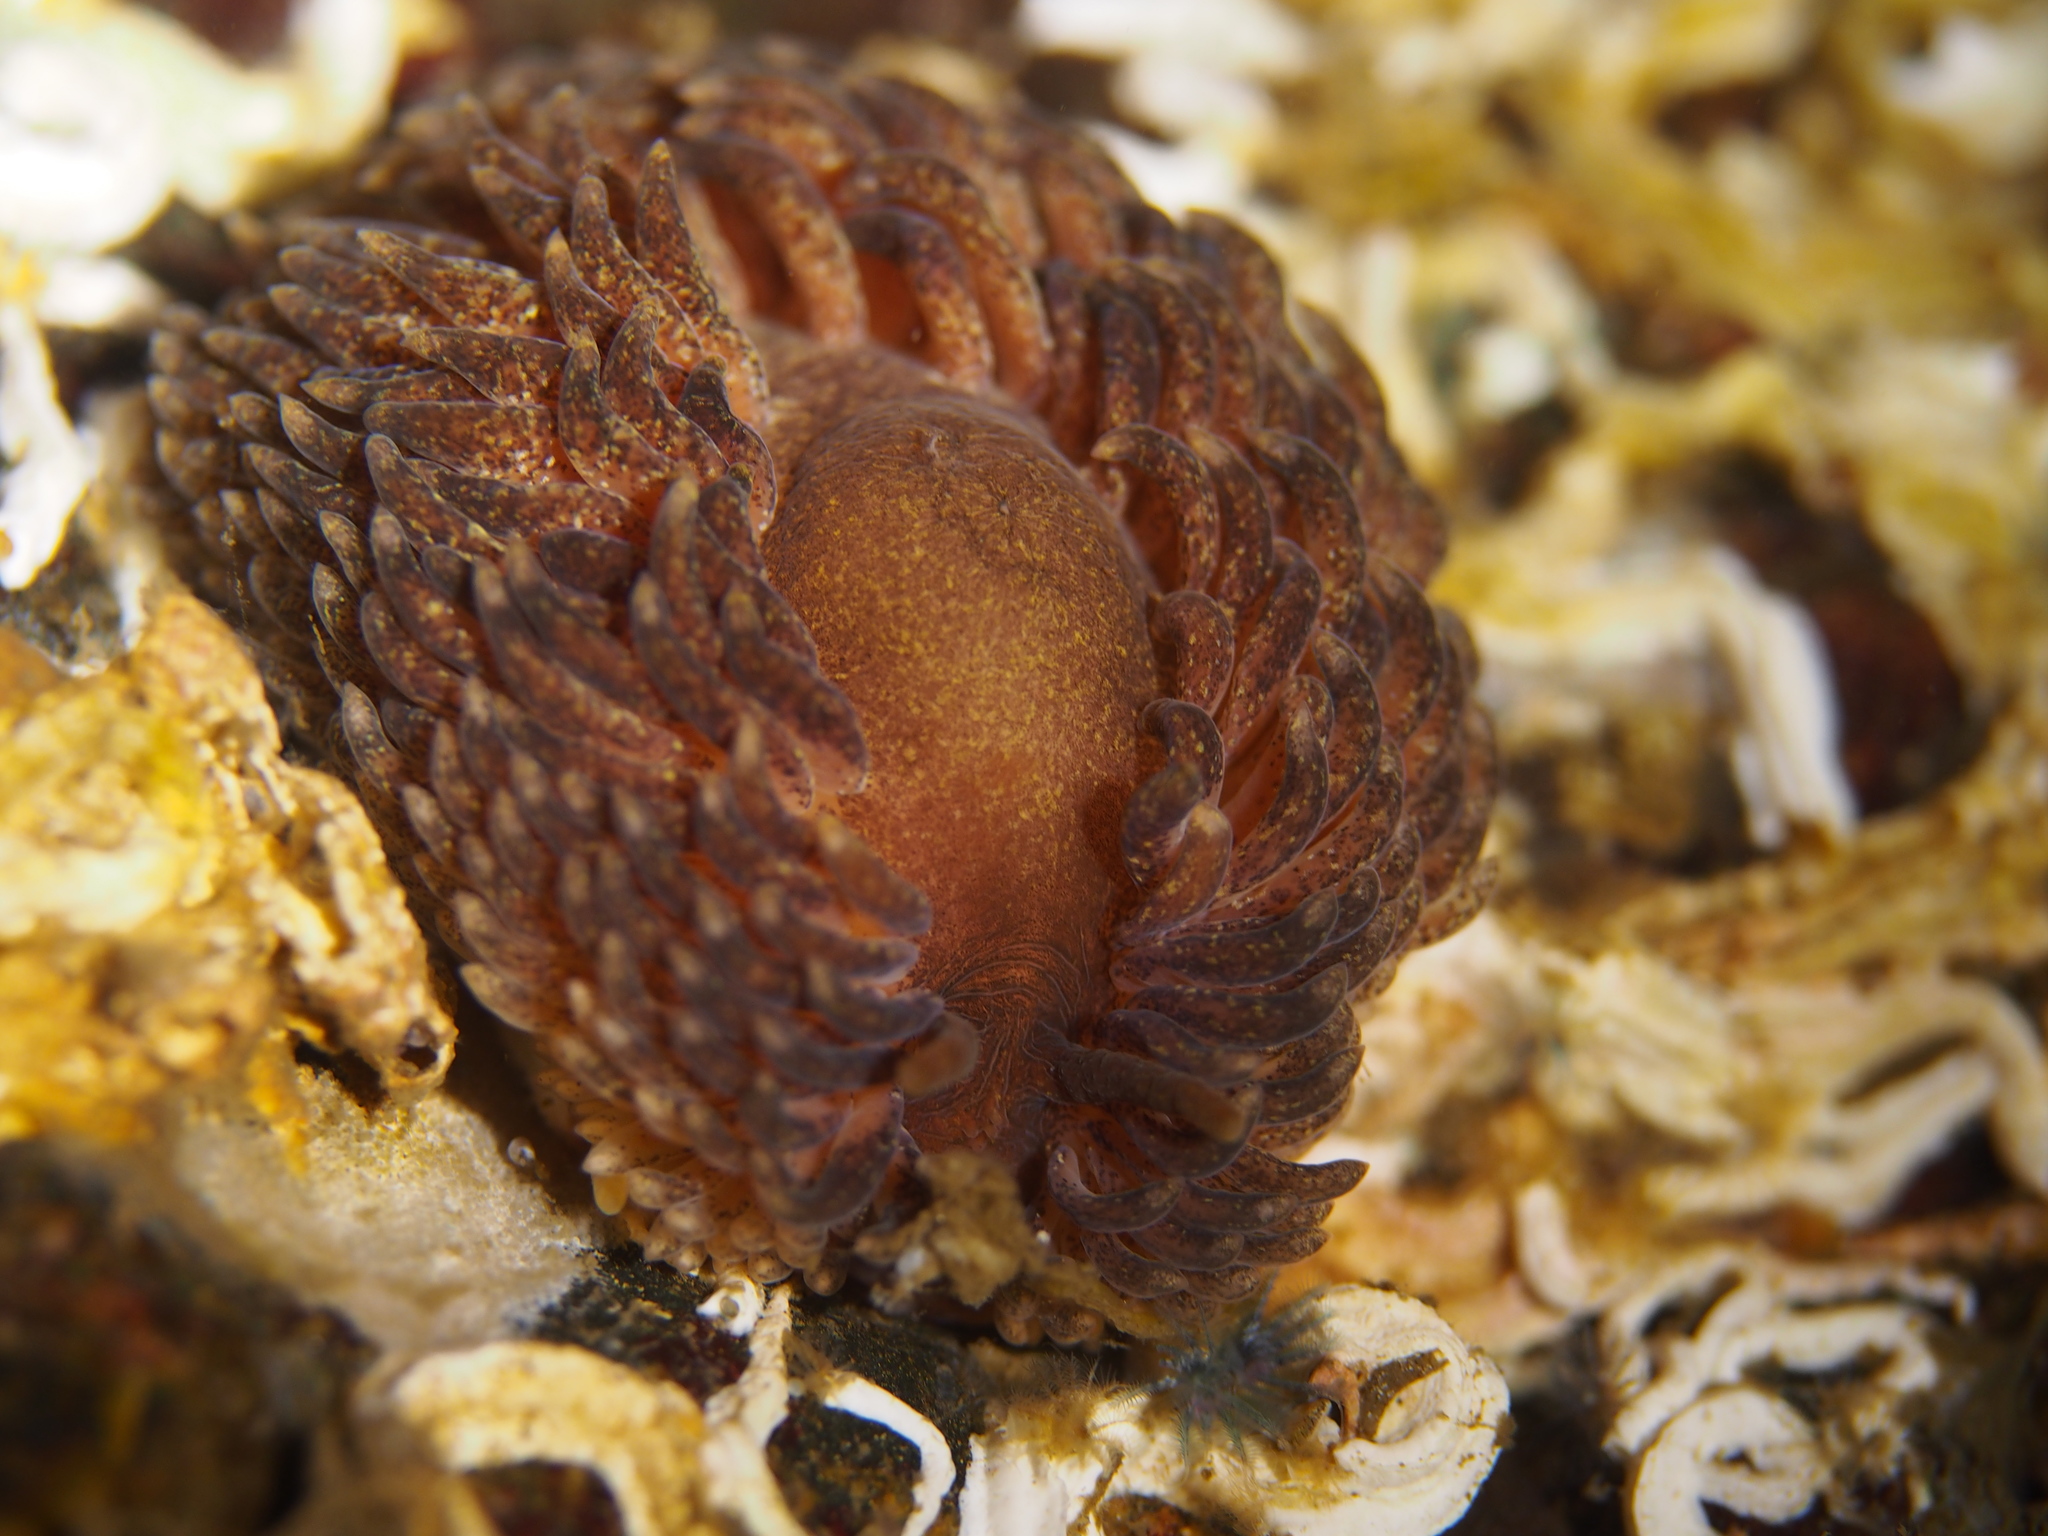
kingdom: Animalia
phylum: Mollusca
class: Gastropoda
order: Nudibranchia
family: Aeolidiidae
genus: Aeolidia
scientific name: Aeolidia papillosa
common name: Common grey sea slug
